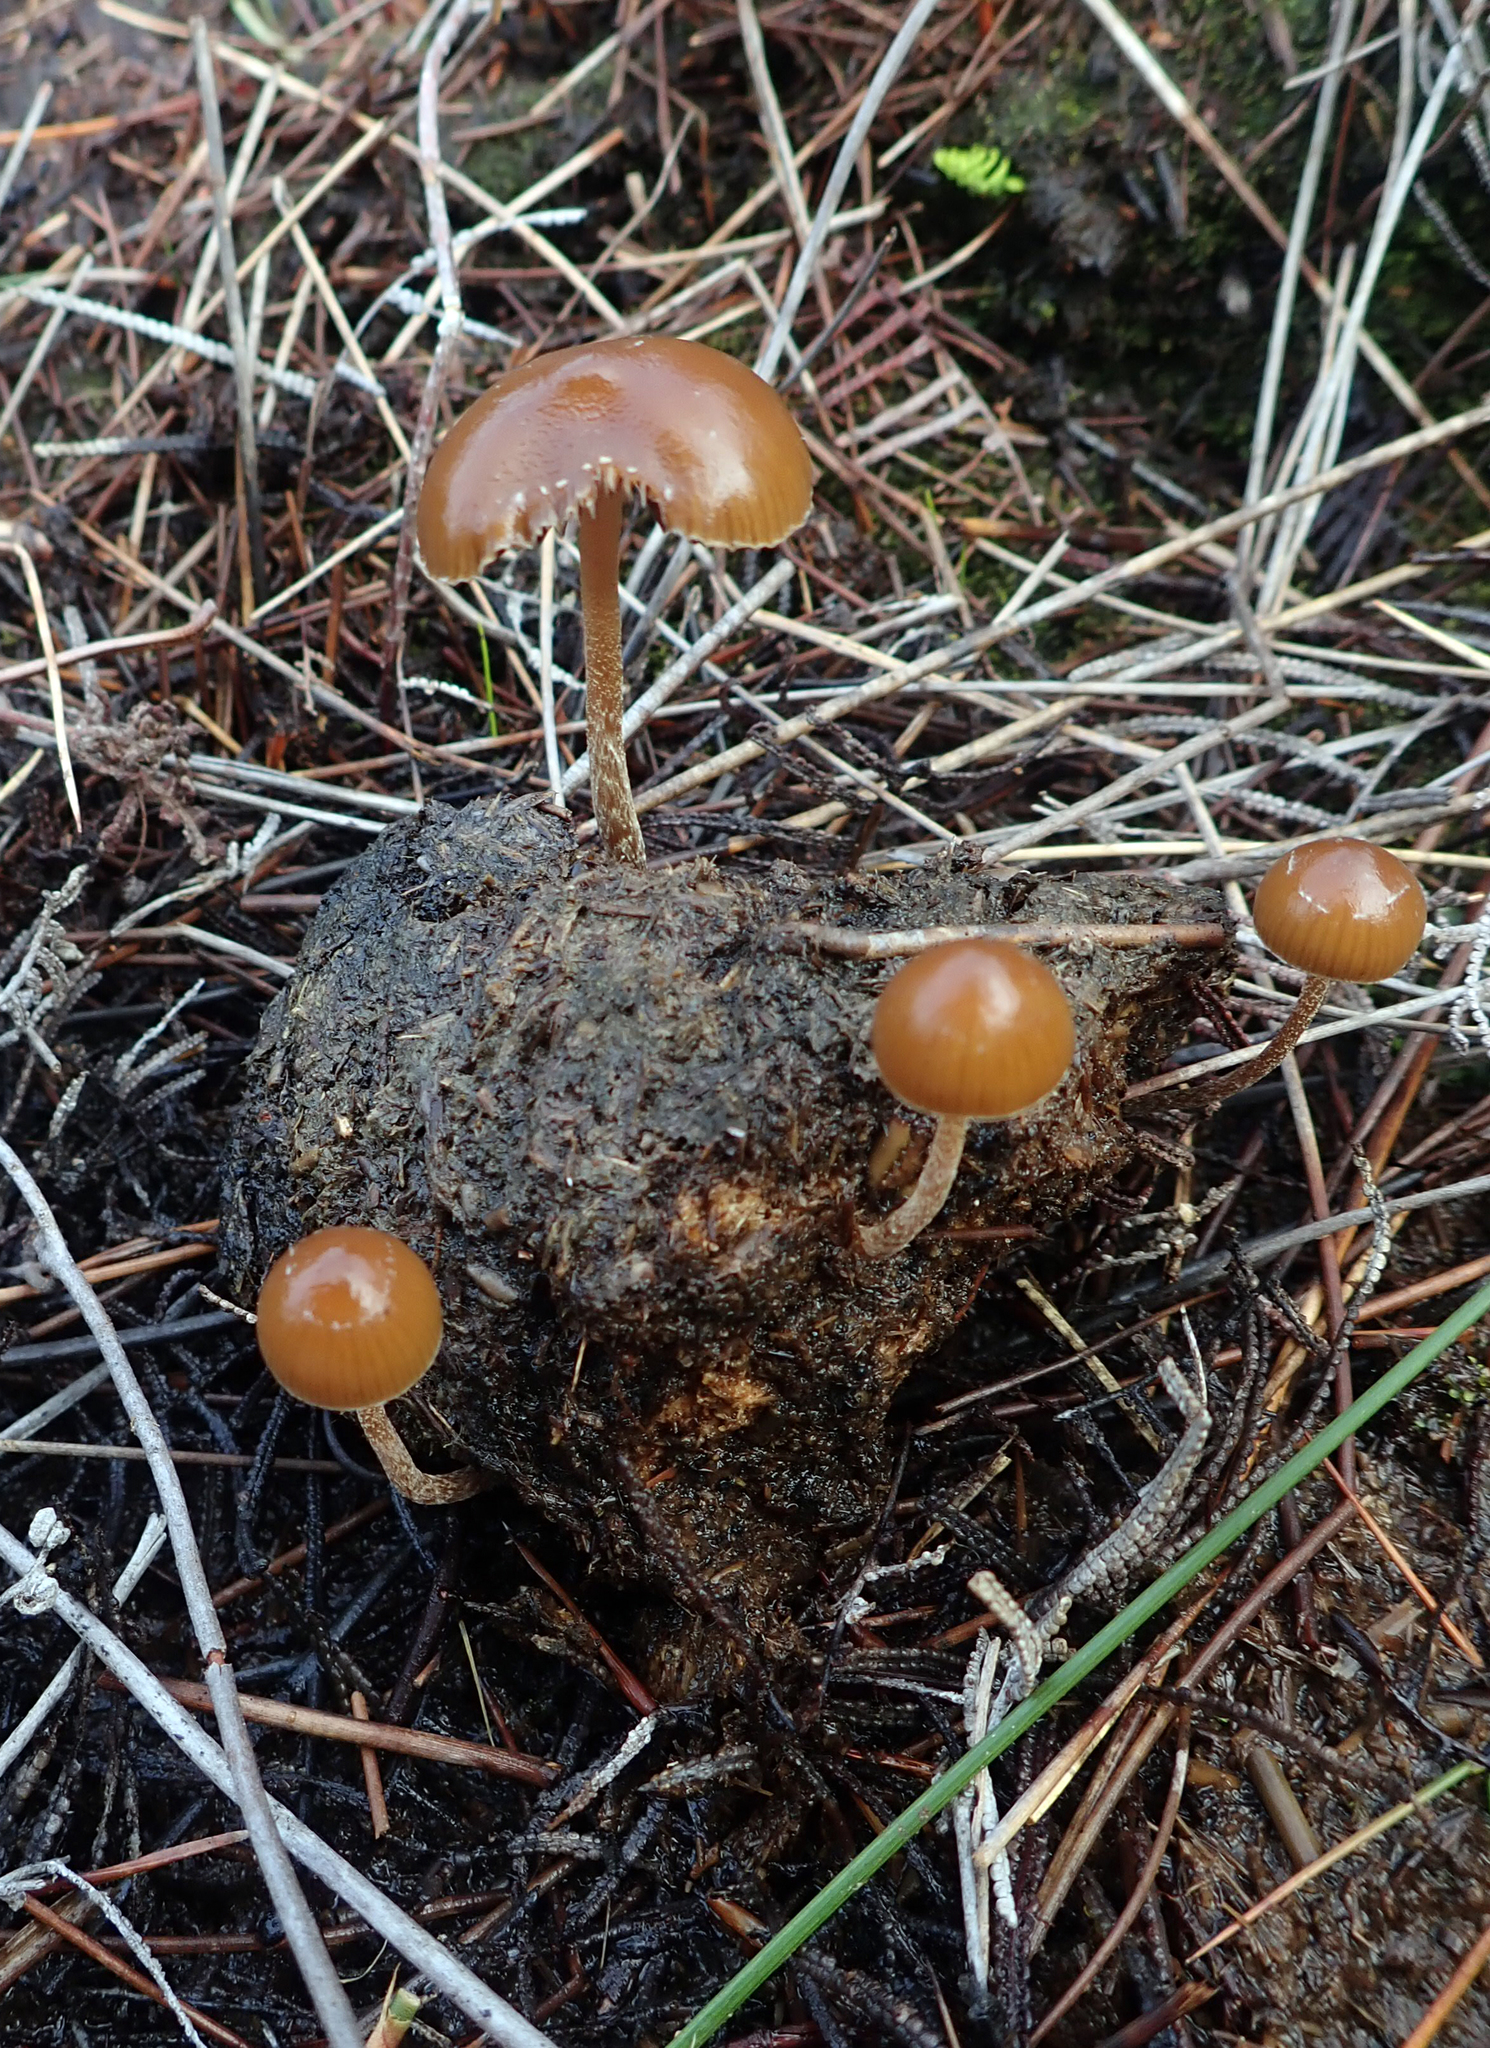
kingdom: Fungi
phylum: Basidiomycota
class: Agaricomycetes
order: Agaricales
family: Hymenogastraceae
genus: Psilocybe
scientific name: Psilocybe alutacea
